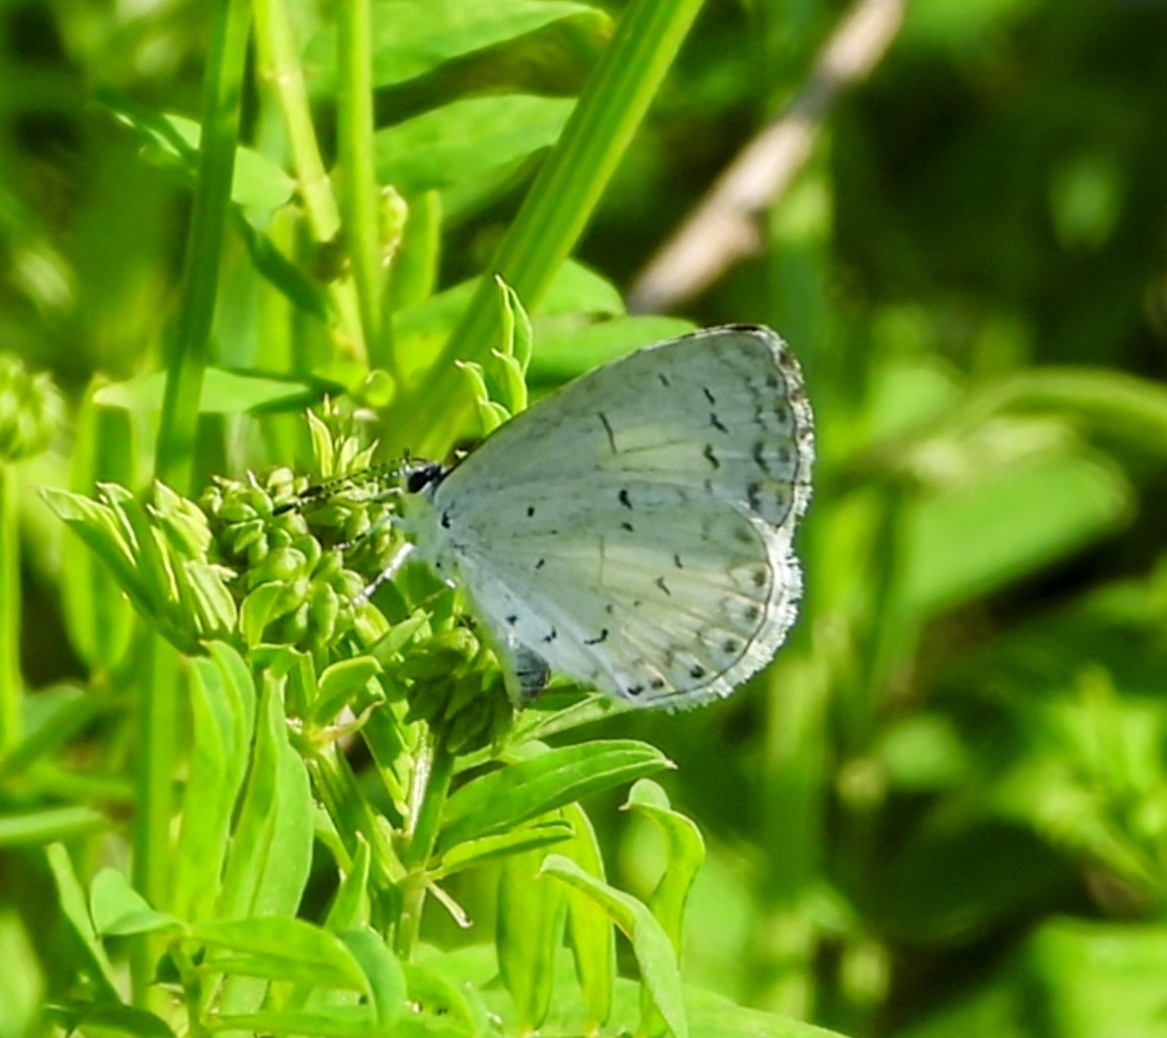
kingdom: Animalia
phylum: Arthropoda
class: Insecta
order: Lepidoptera
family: Lycaenidae
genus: Cyaniris
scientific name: Cyaniris neglecta
